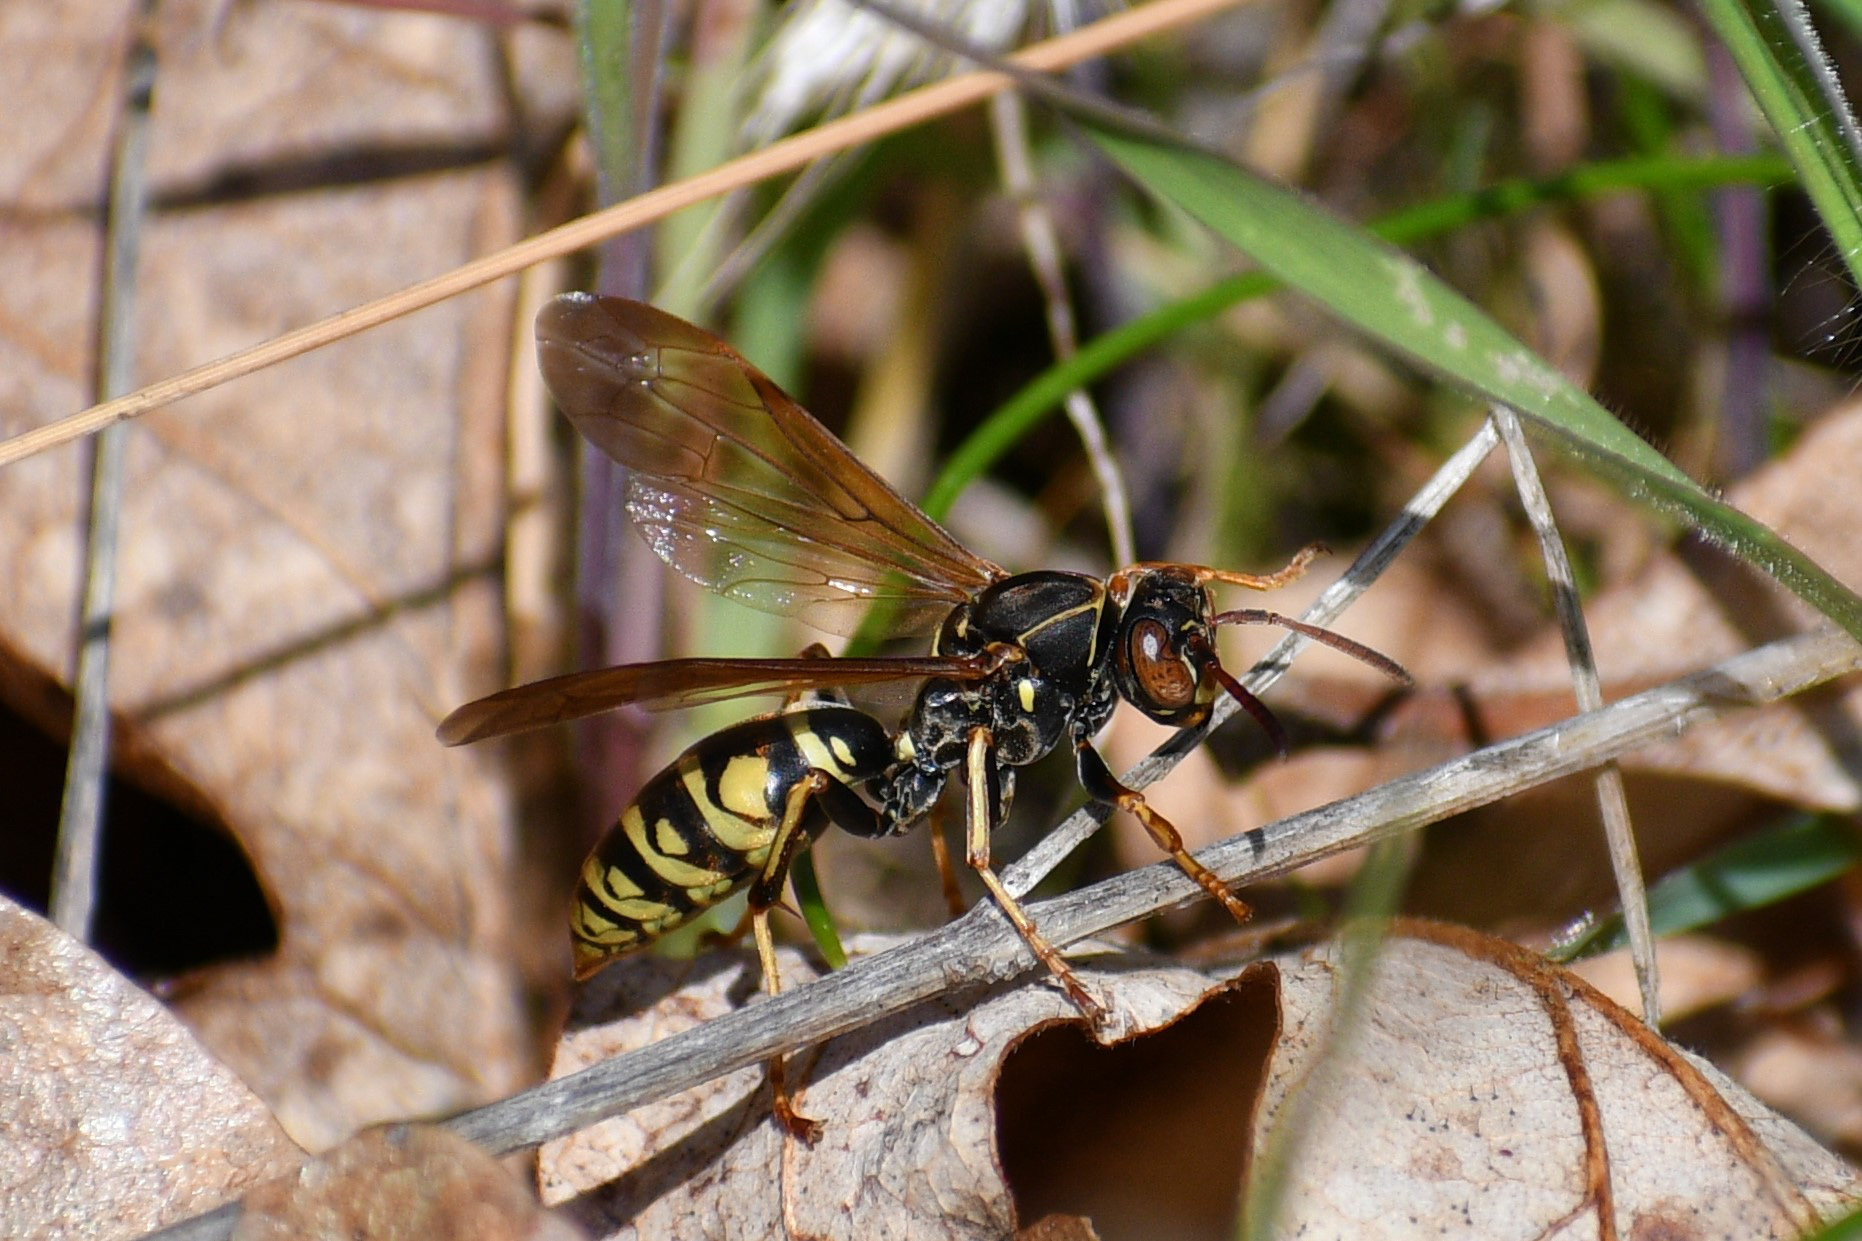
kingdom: Animalia
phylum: Arthropoda
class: Insecta
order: Hymenoptera
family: Eumenidae
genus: Polistes
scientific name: Polistes aurifer
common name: Paper wasp
